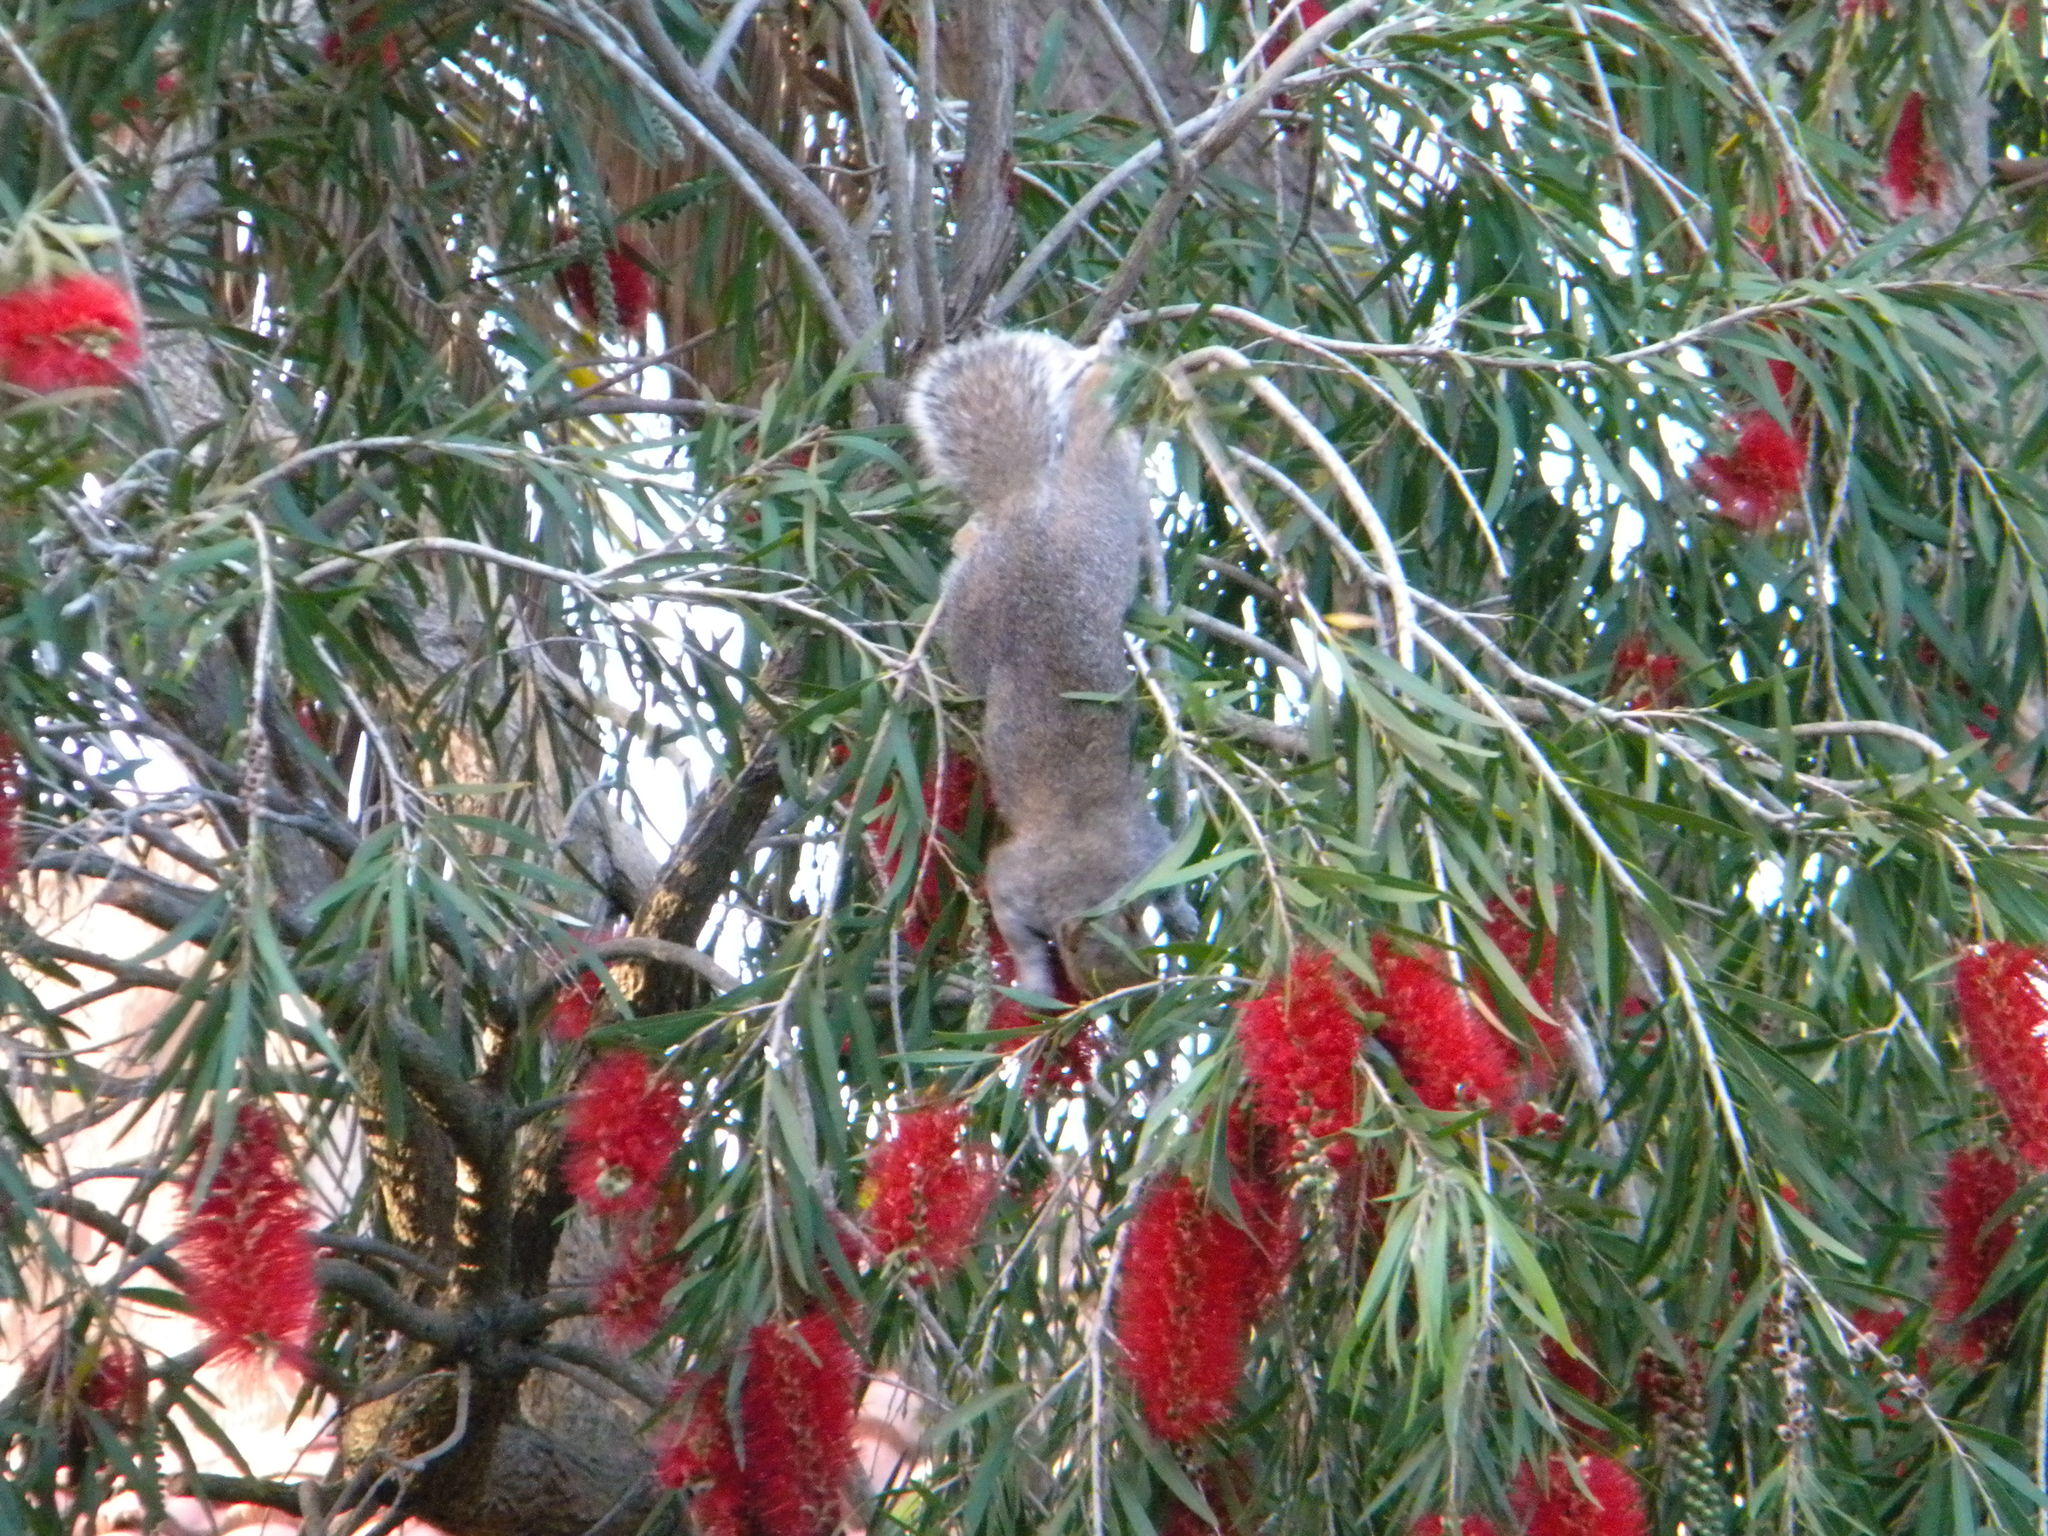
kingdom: Animalia
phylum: Chordata
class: Mammalia
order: Rodentia
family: Sciuridae
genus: Sciurus
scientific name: Sciurus carolinensis
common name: Eastern gray squirrel
